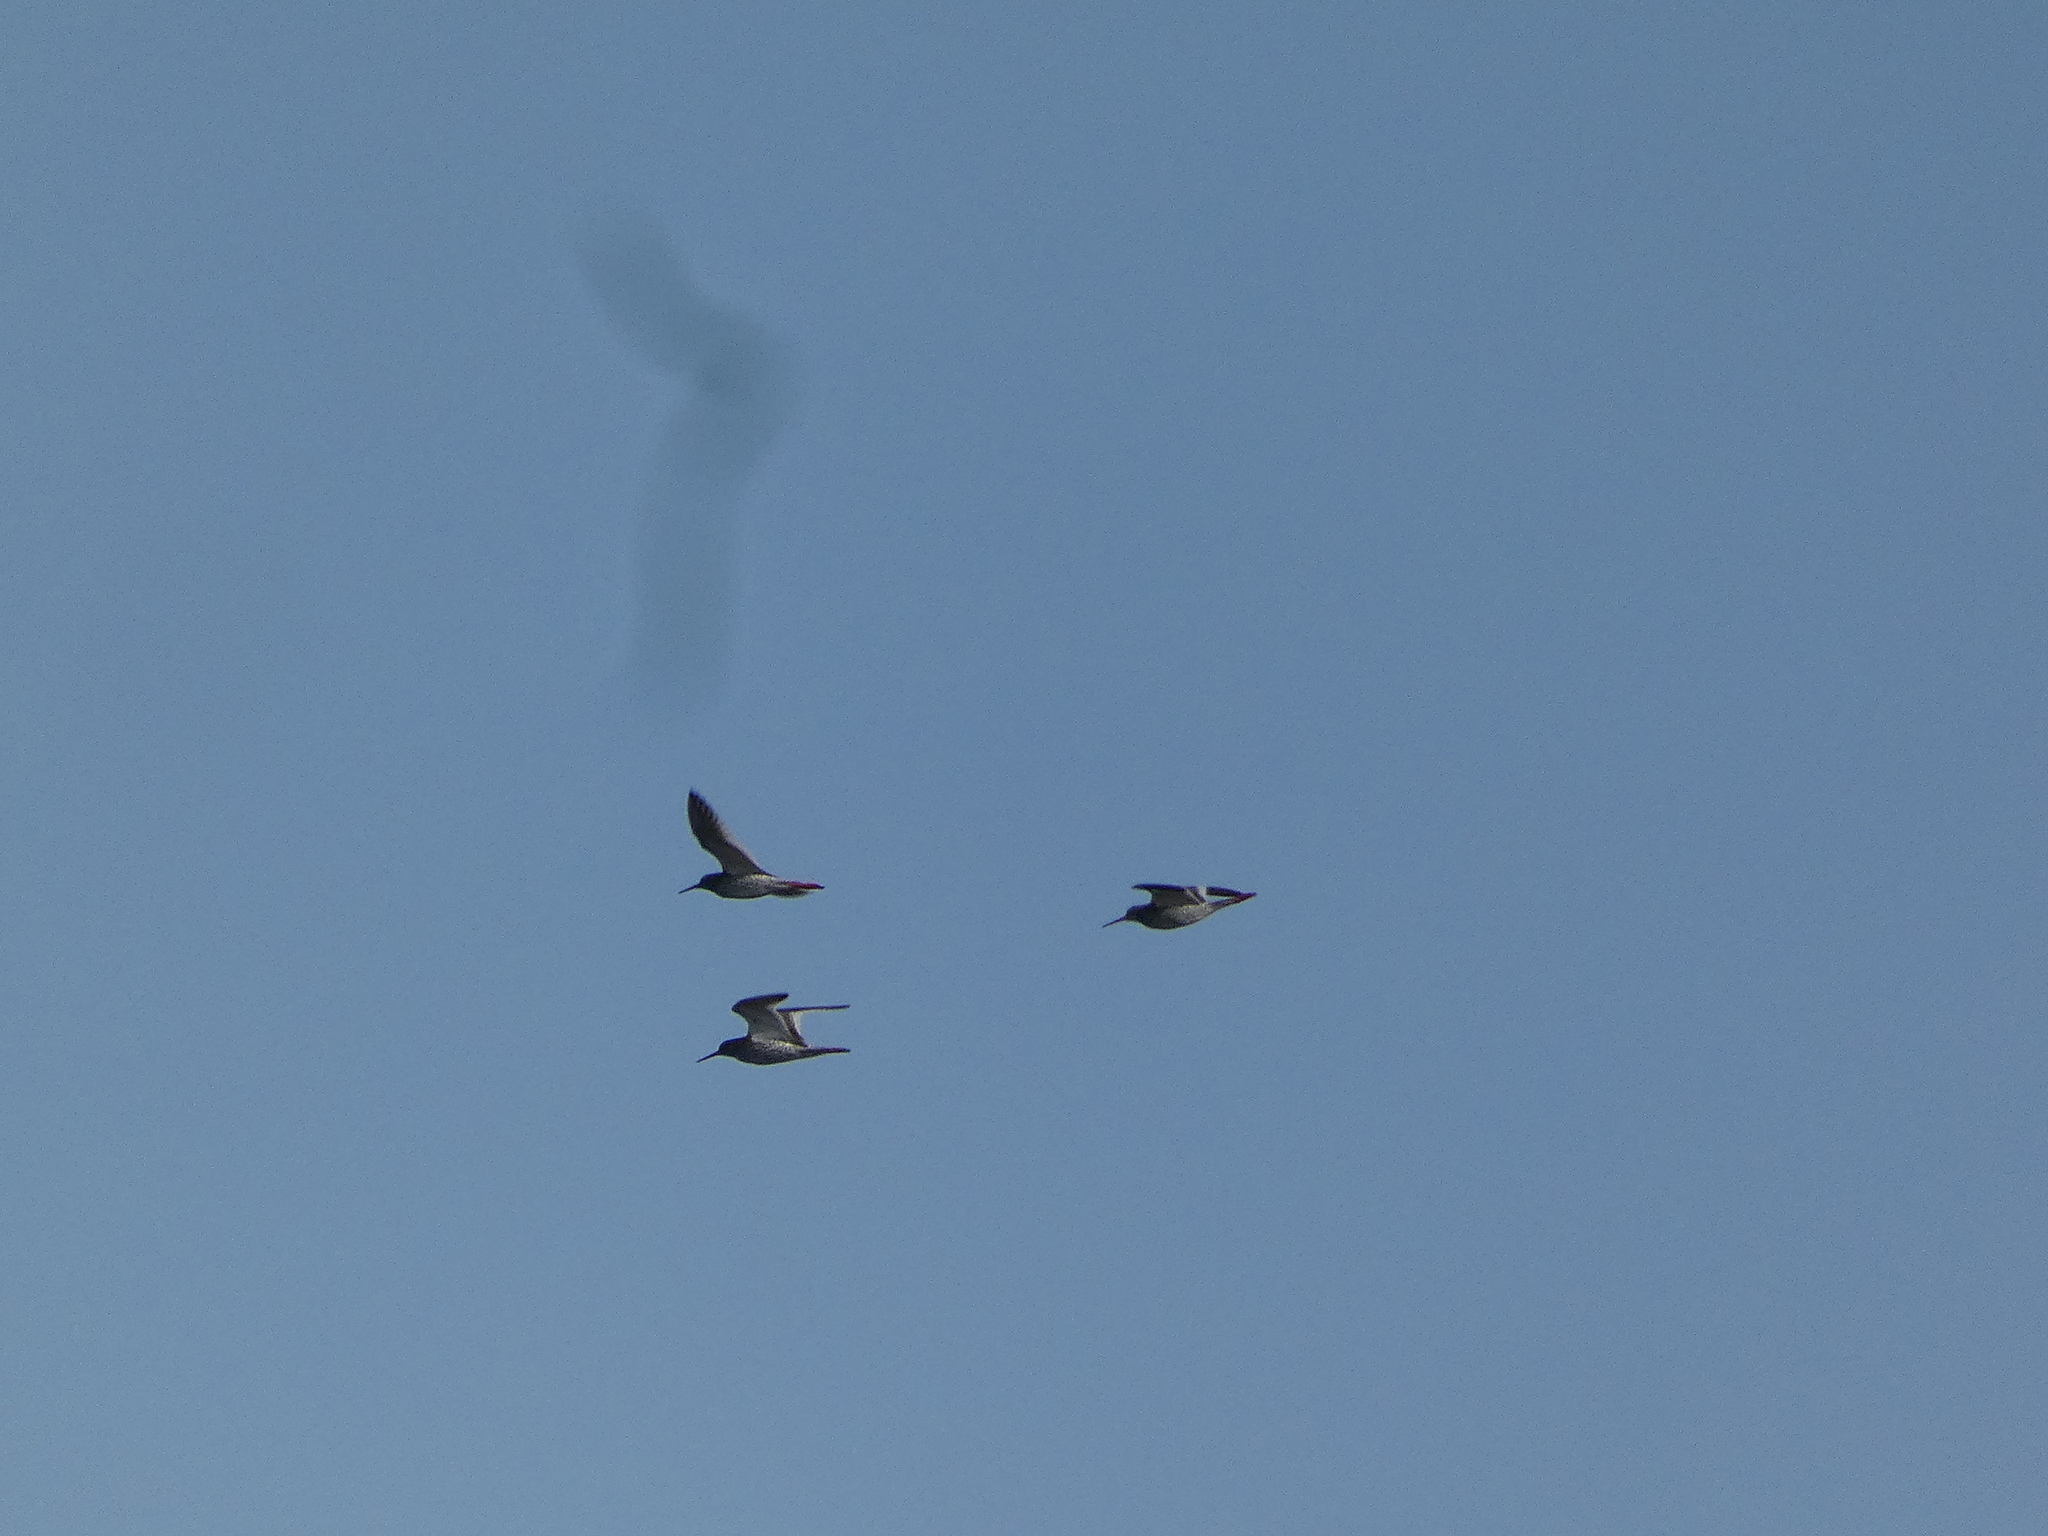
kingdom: Animalia
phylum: Chordata
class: Aves
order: Charadriiformes
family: Scolopacidae
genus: Tringa
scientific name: Tringa totanus
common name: Common redshank
